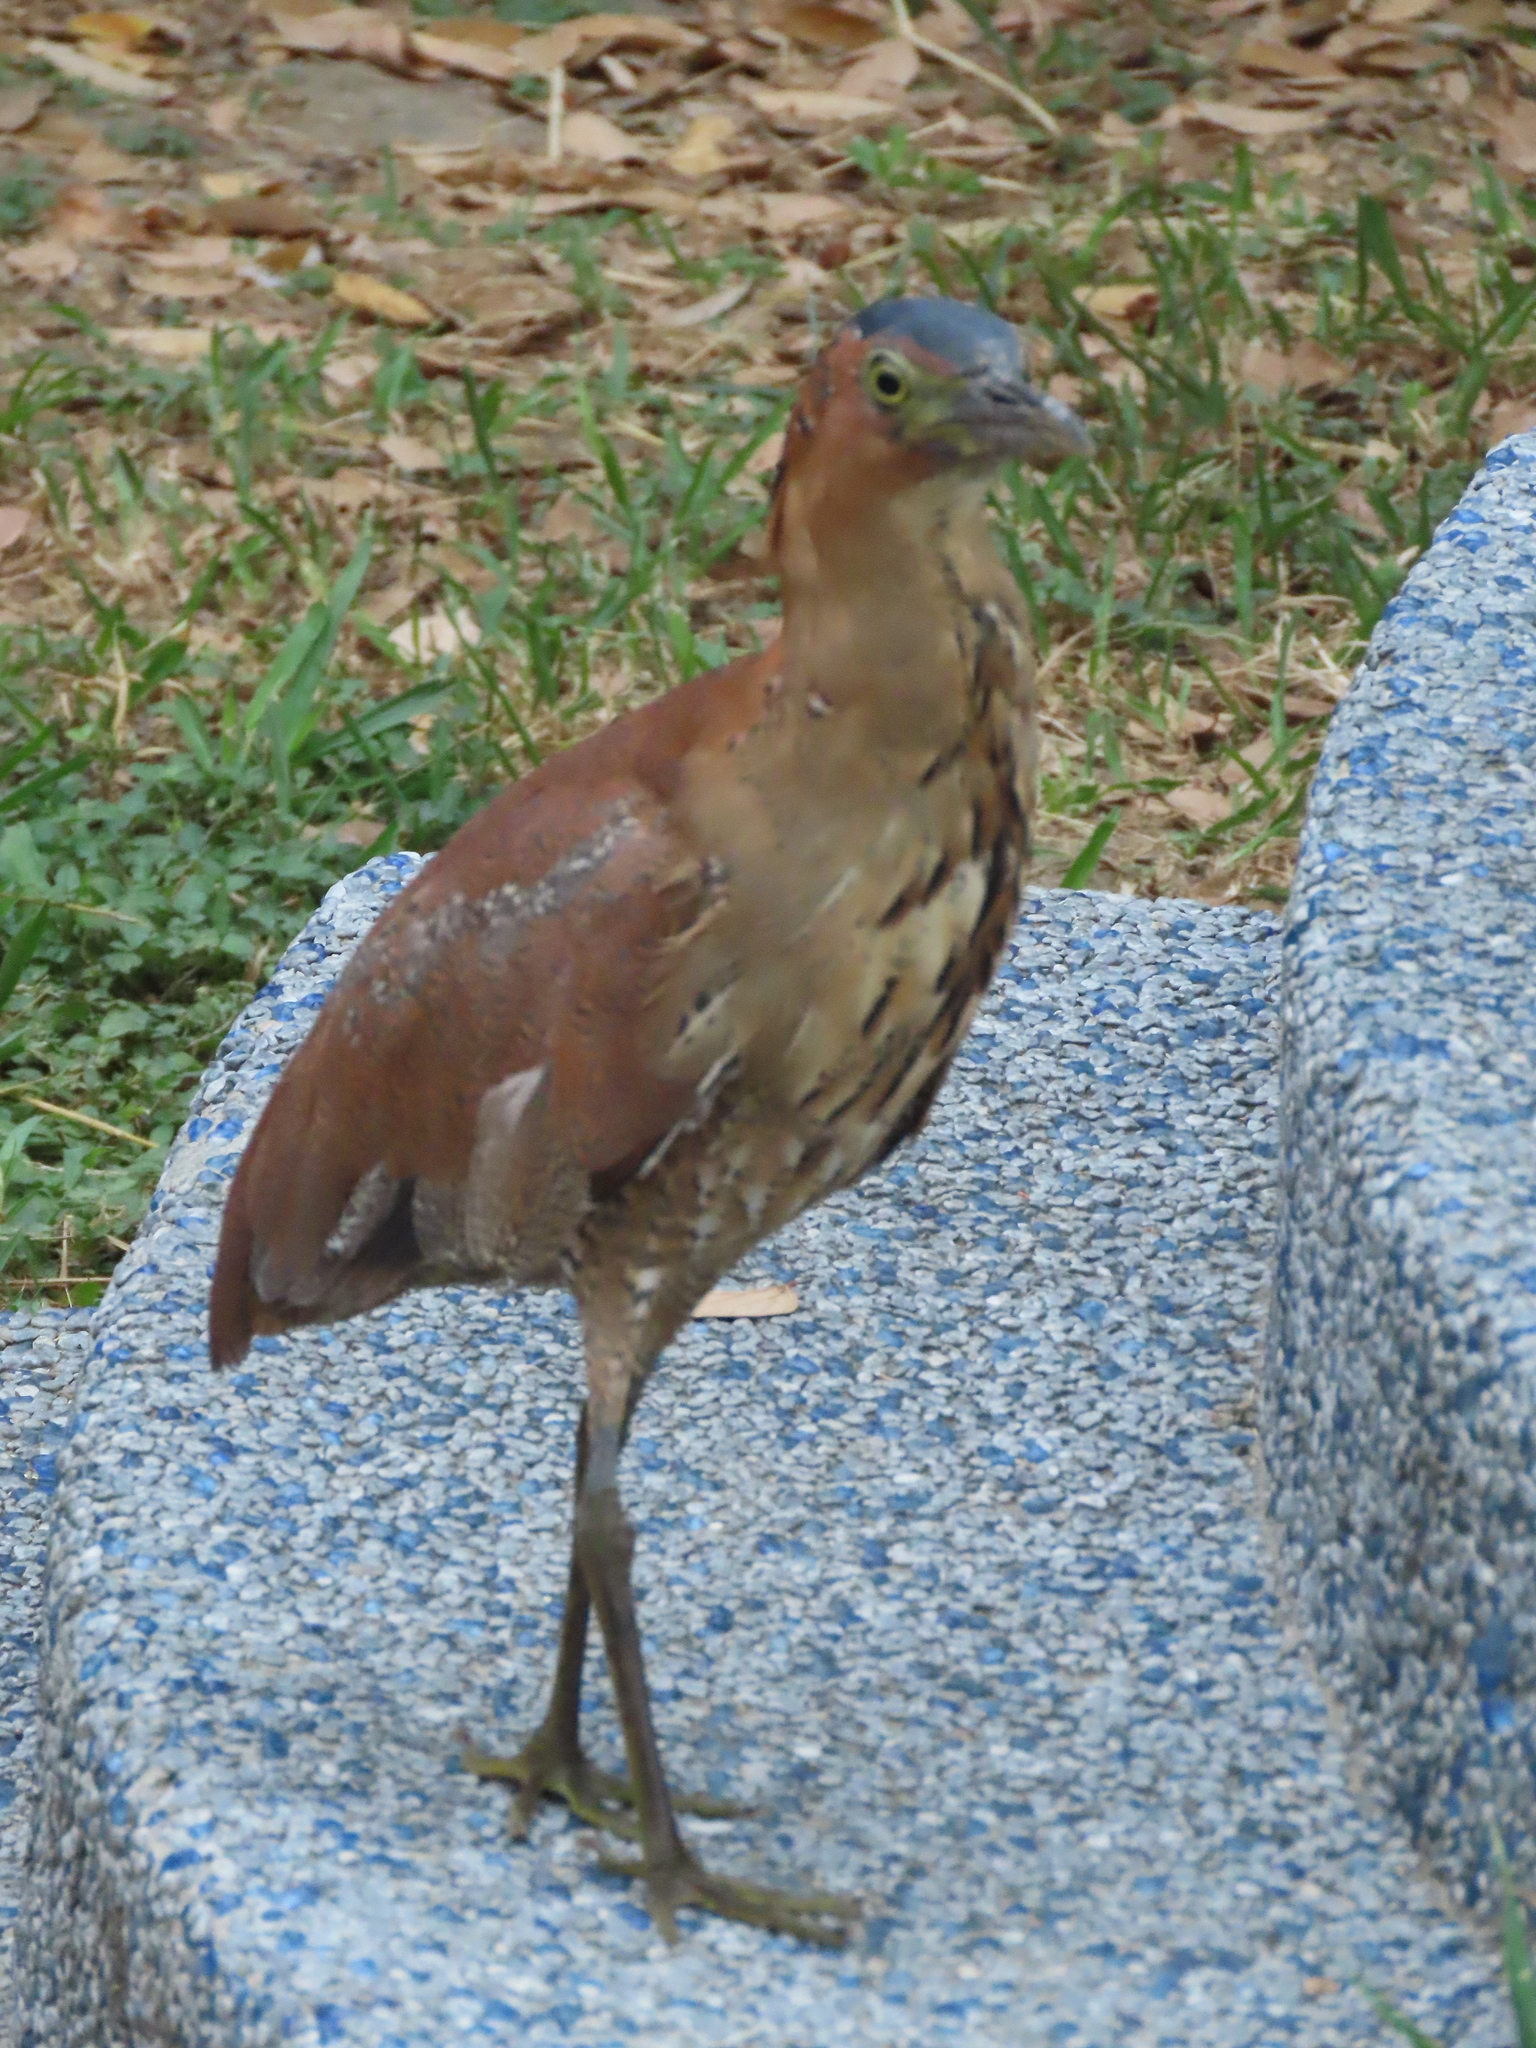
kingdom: Animalia
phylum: Chordata
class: Aves
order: Pelecaniformes
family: Ardeidae
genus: Gorsachius
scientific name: Gorsachius melanolophus
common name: Malayan night heron
